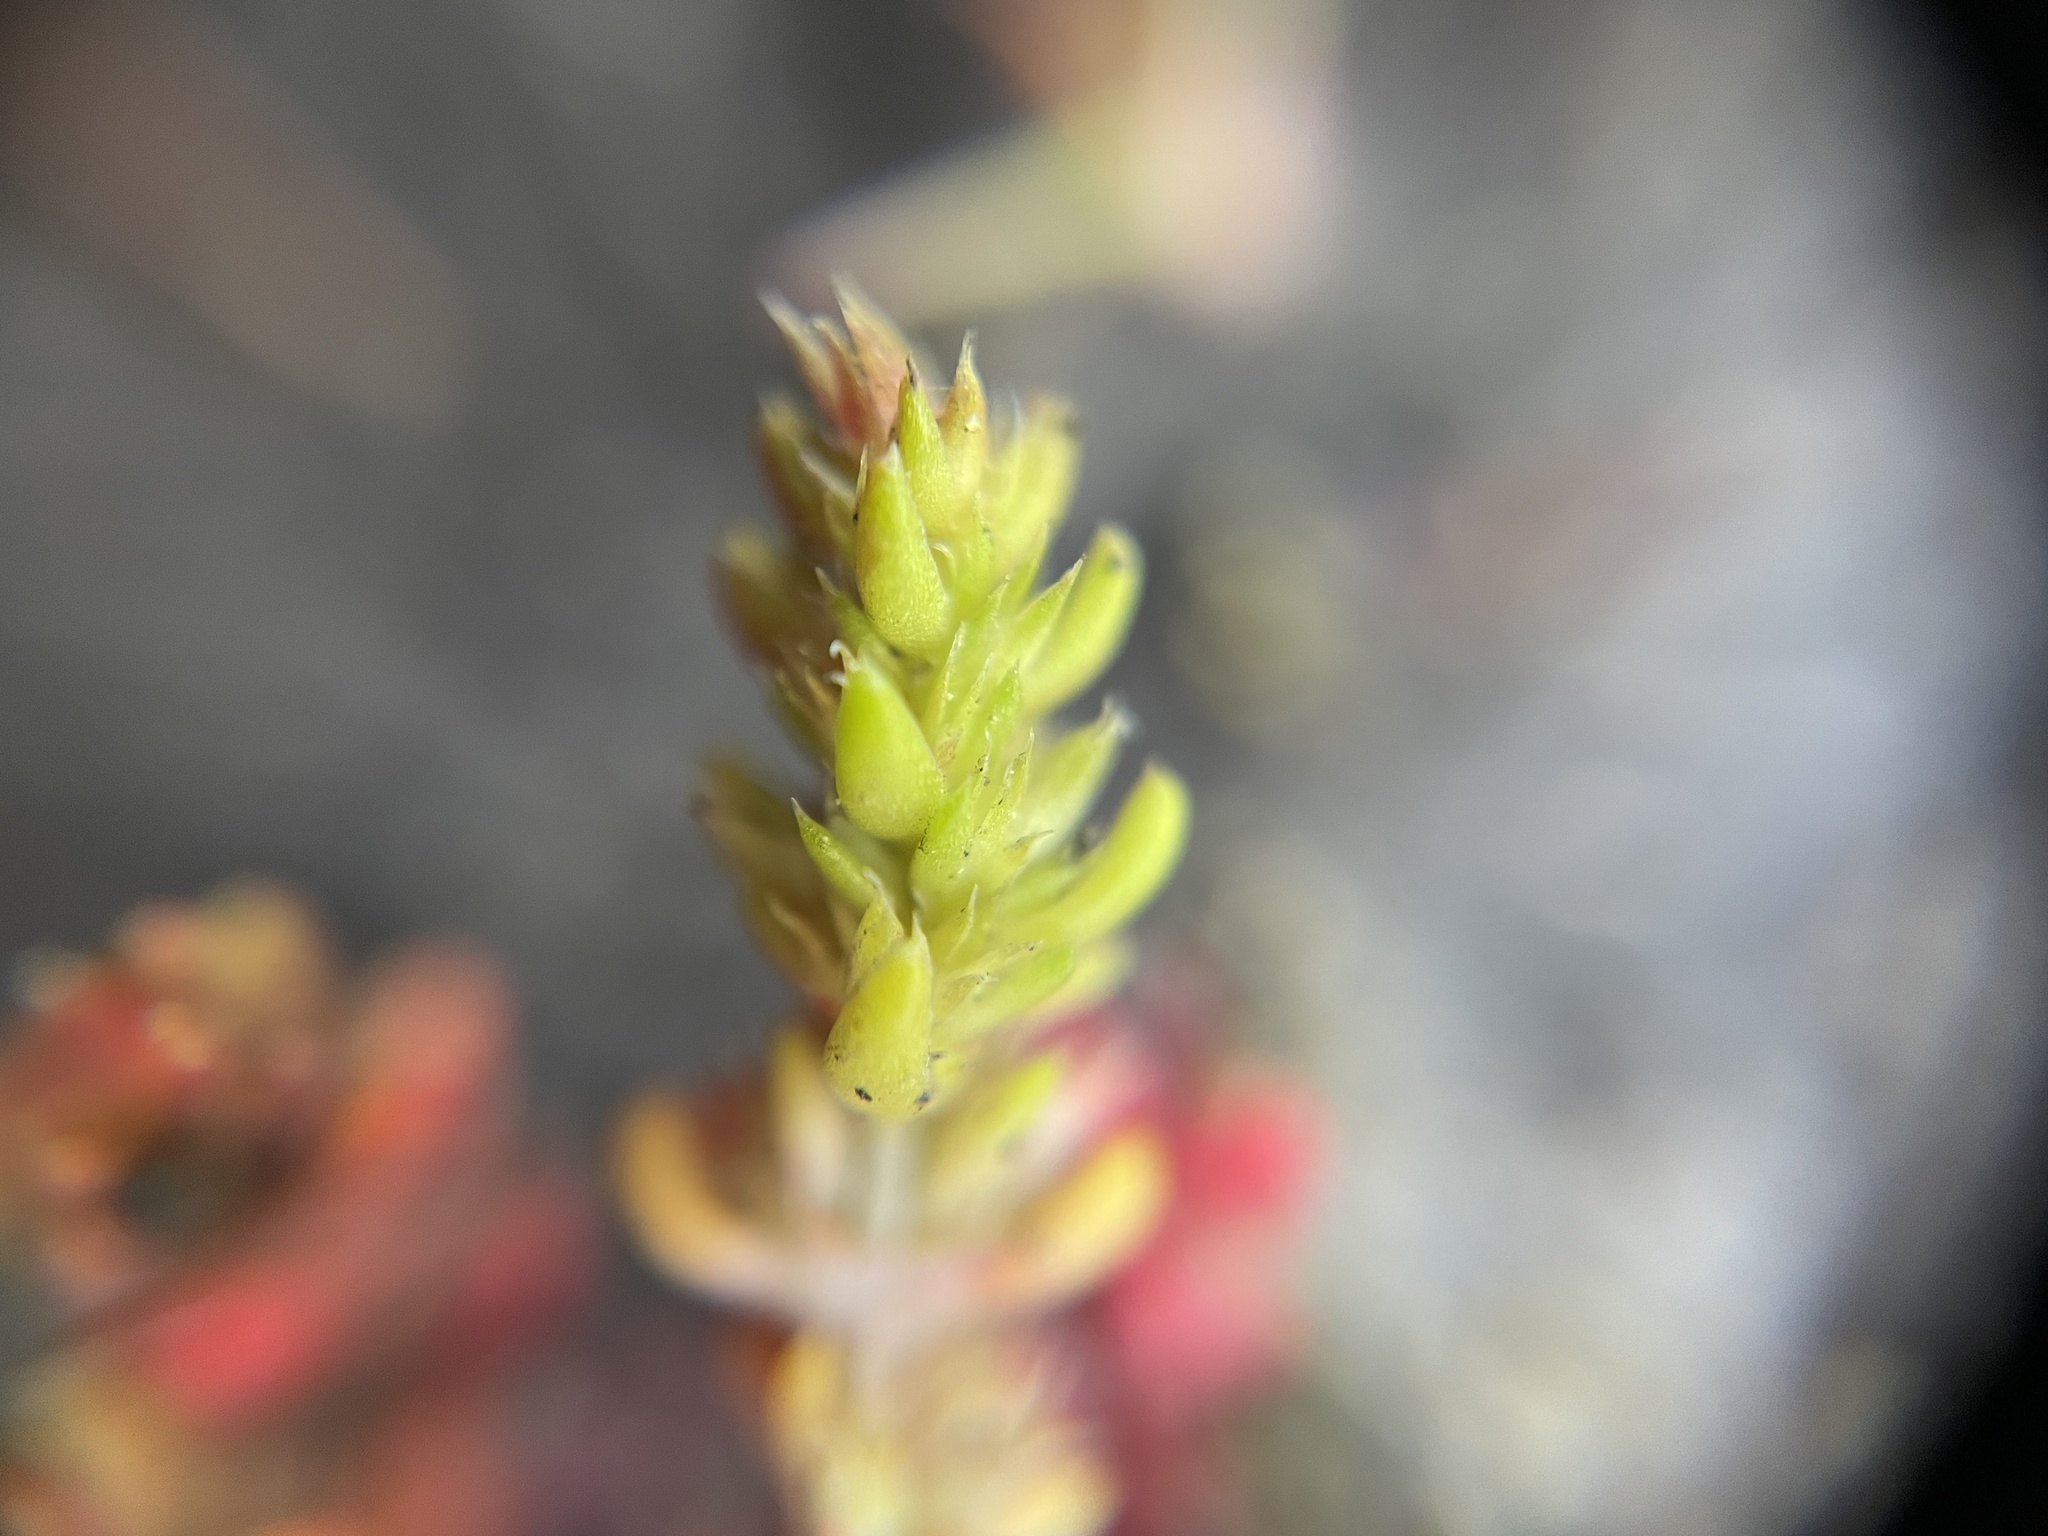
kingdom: Plantae
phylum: Tracheophyta
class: Magnoliopsida
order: Saxifragales
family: Crassulaceae
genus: Crassula
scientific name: Crassula tillaea
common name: Mossy stonecrop
